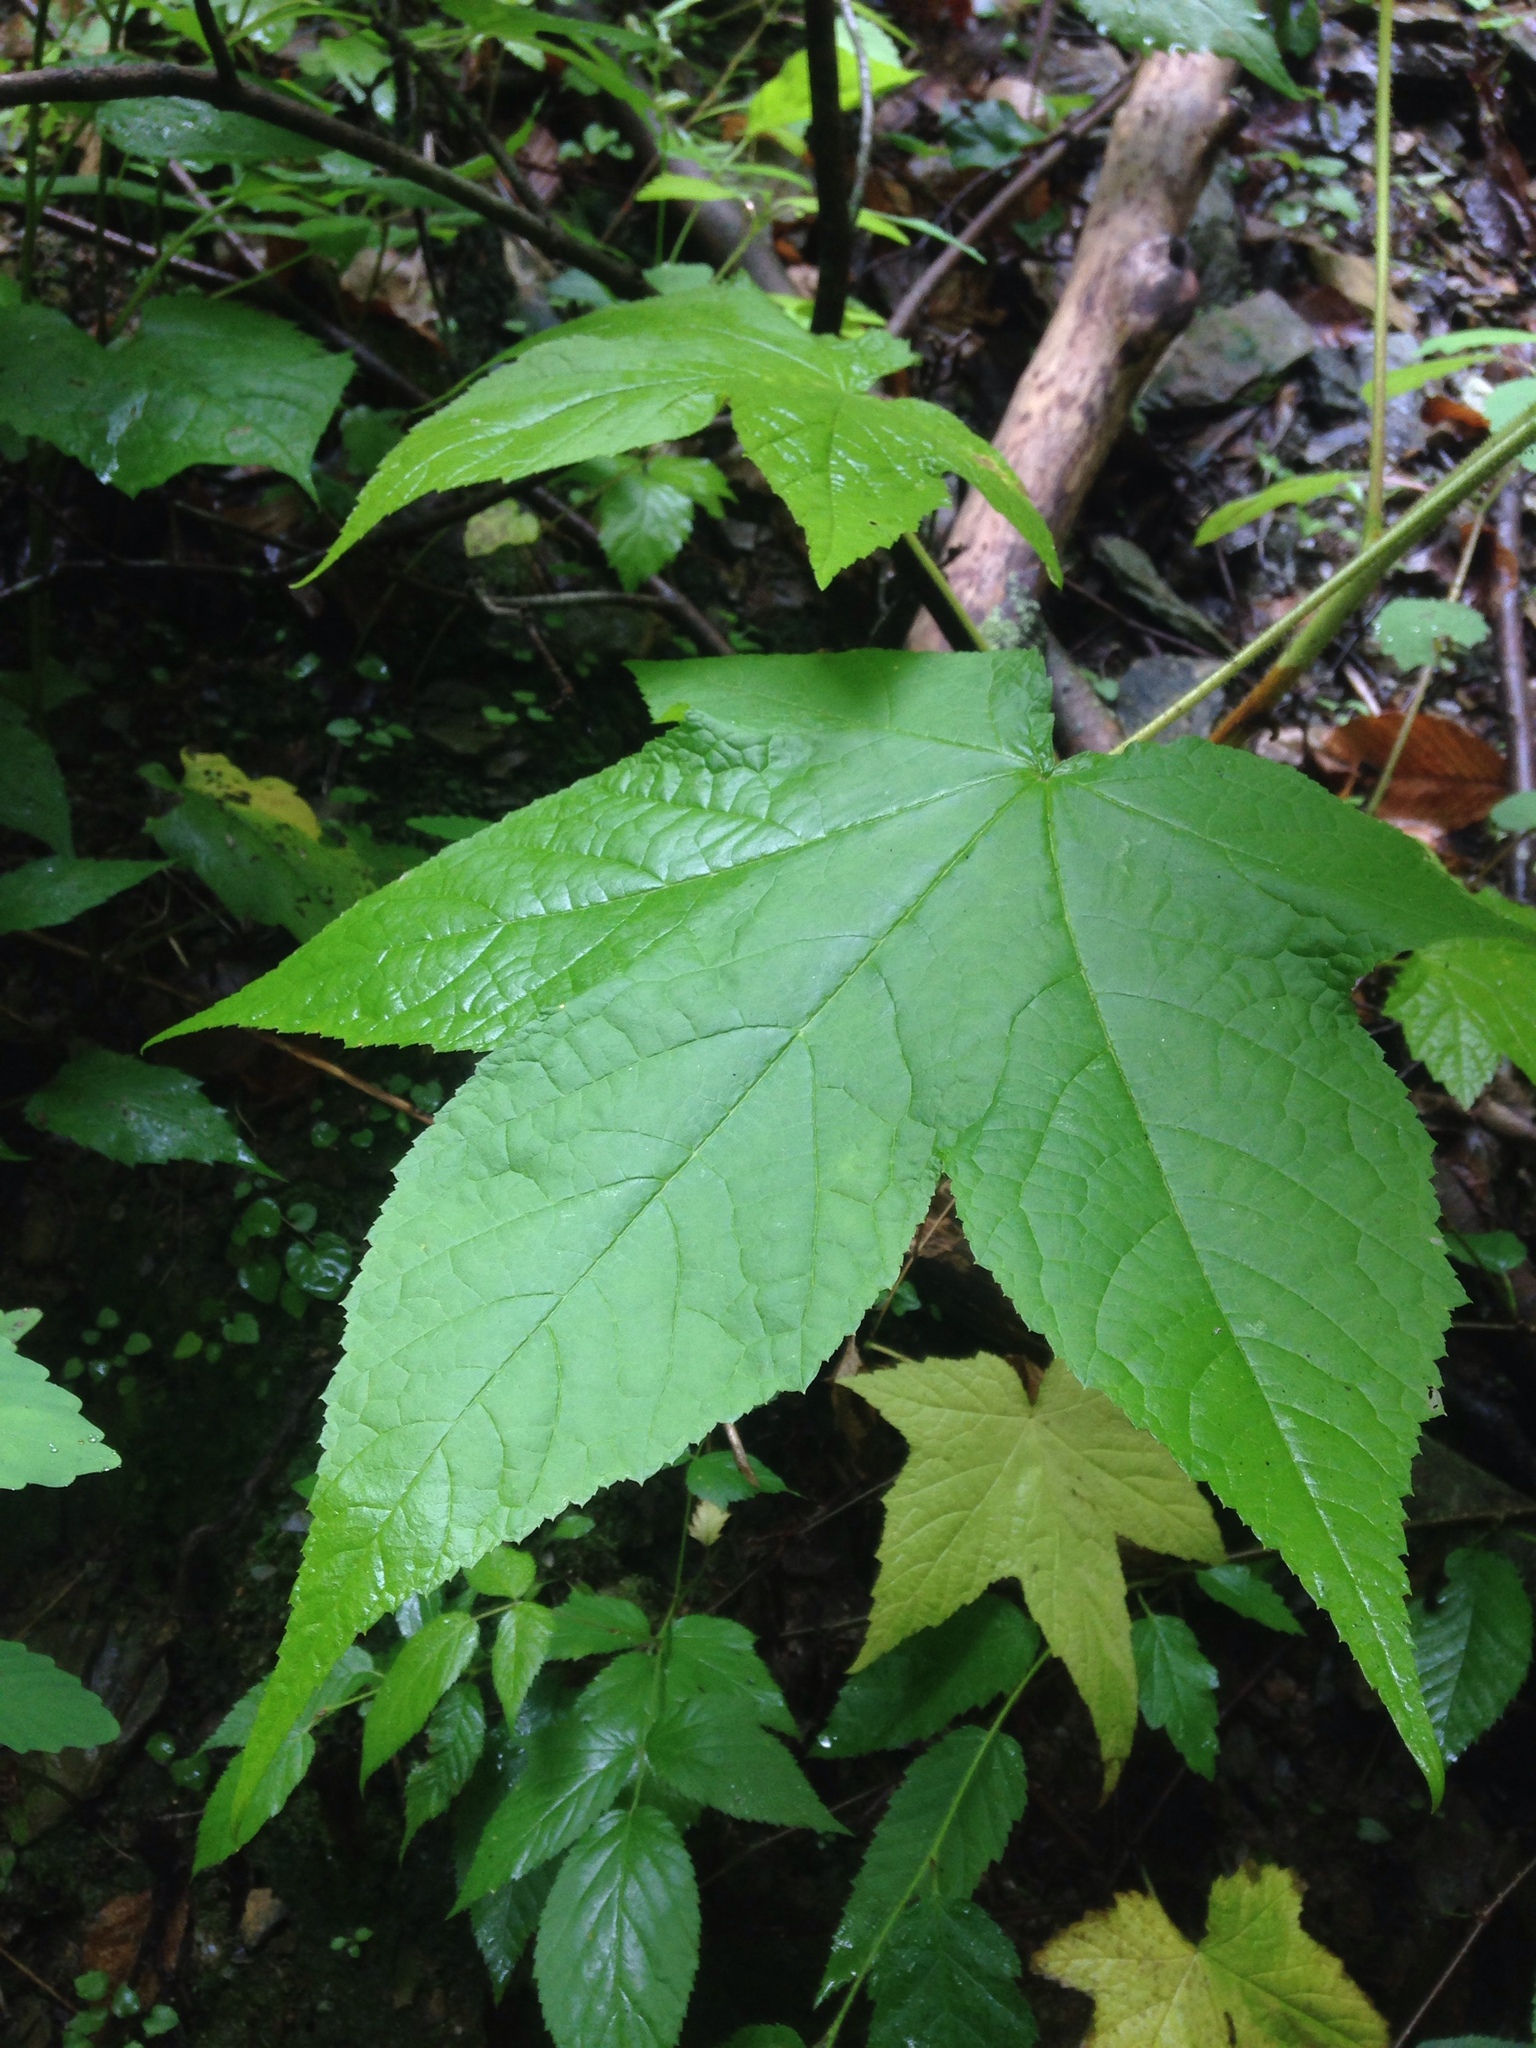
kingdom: Plantae
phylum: Tracheophyta
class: Magnoliopsida
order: Rosales
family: Rosaceae
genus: Rubus
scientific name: Rubus odoratus
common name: Purple-flowered raspberry
